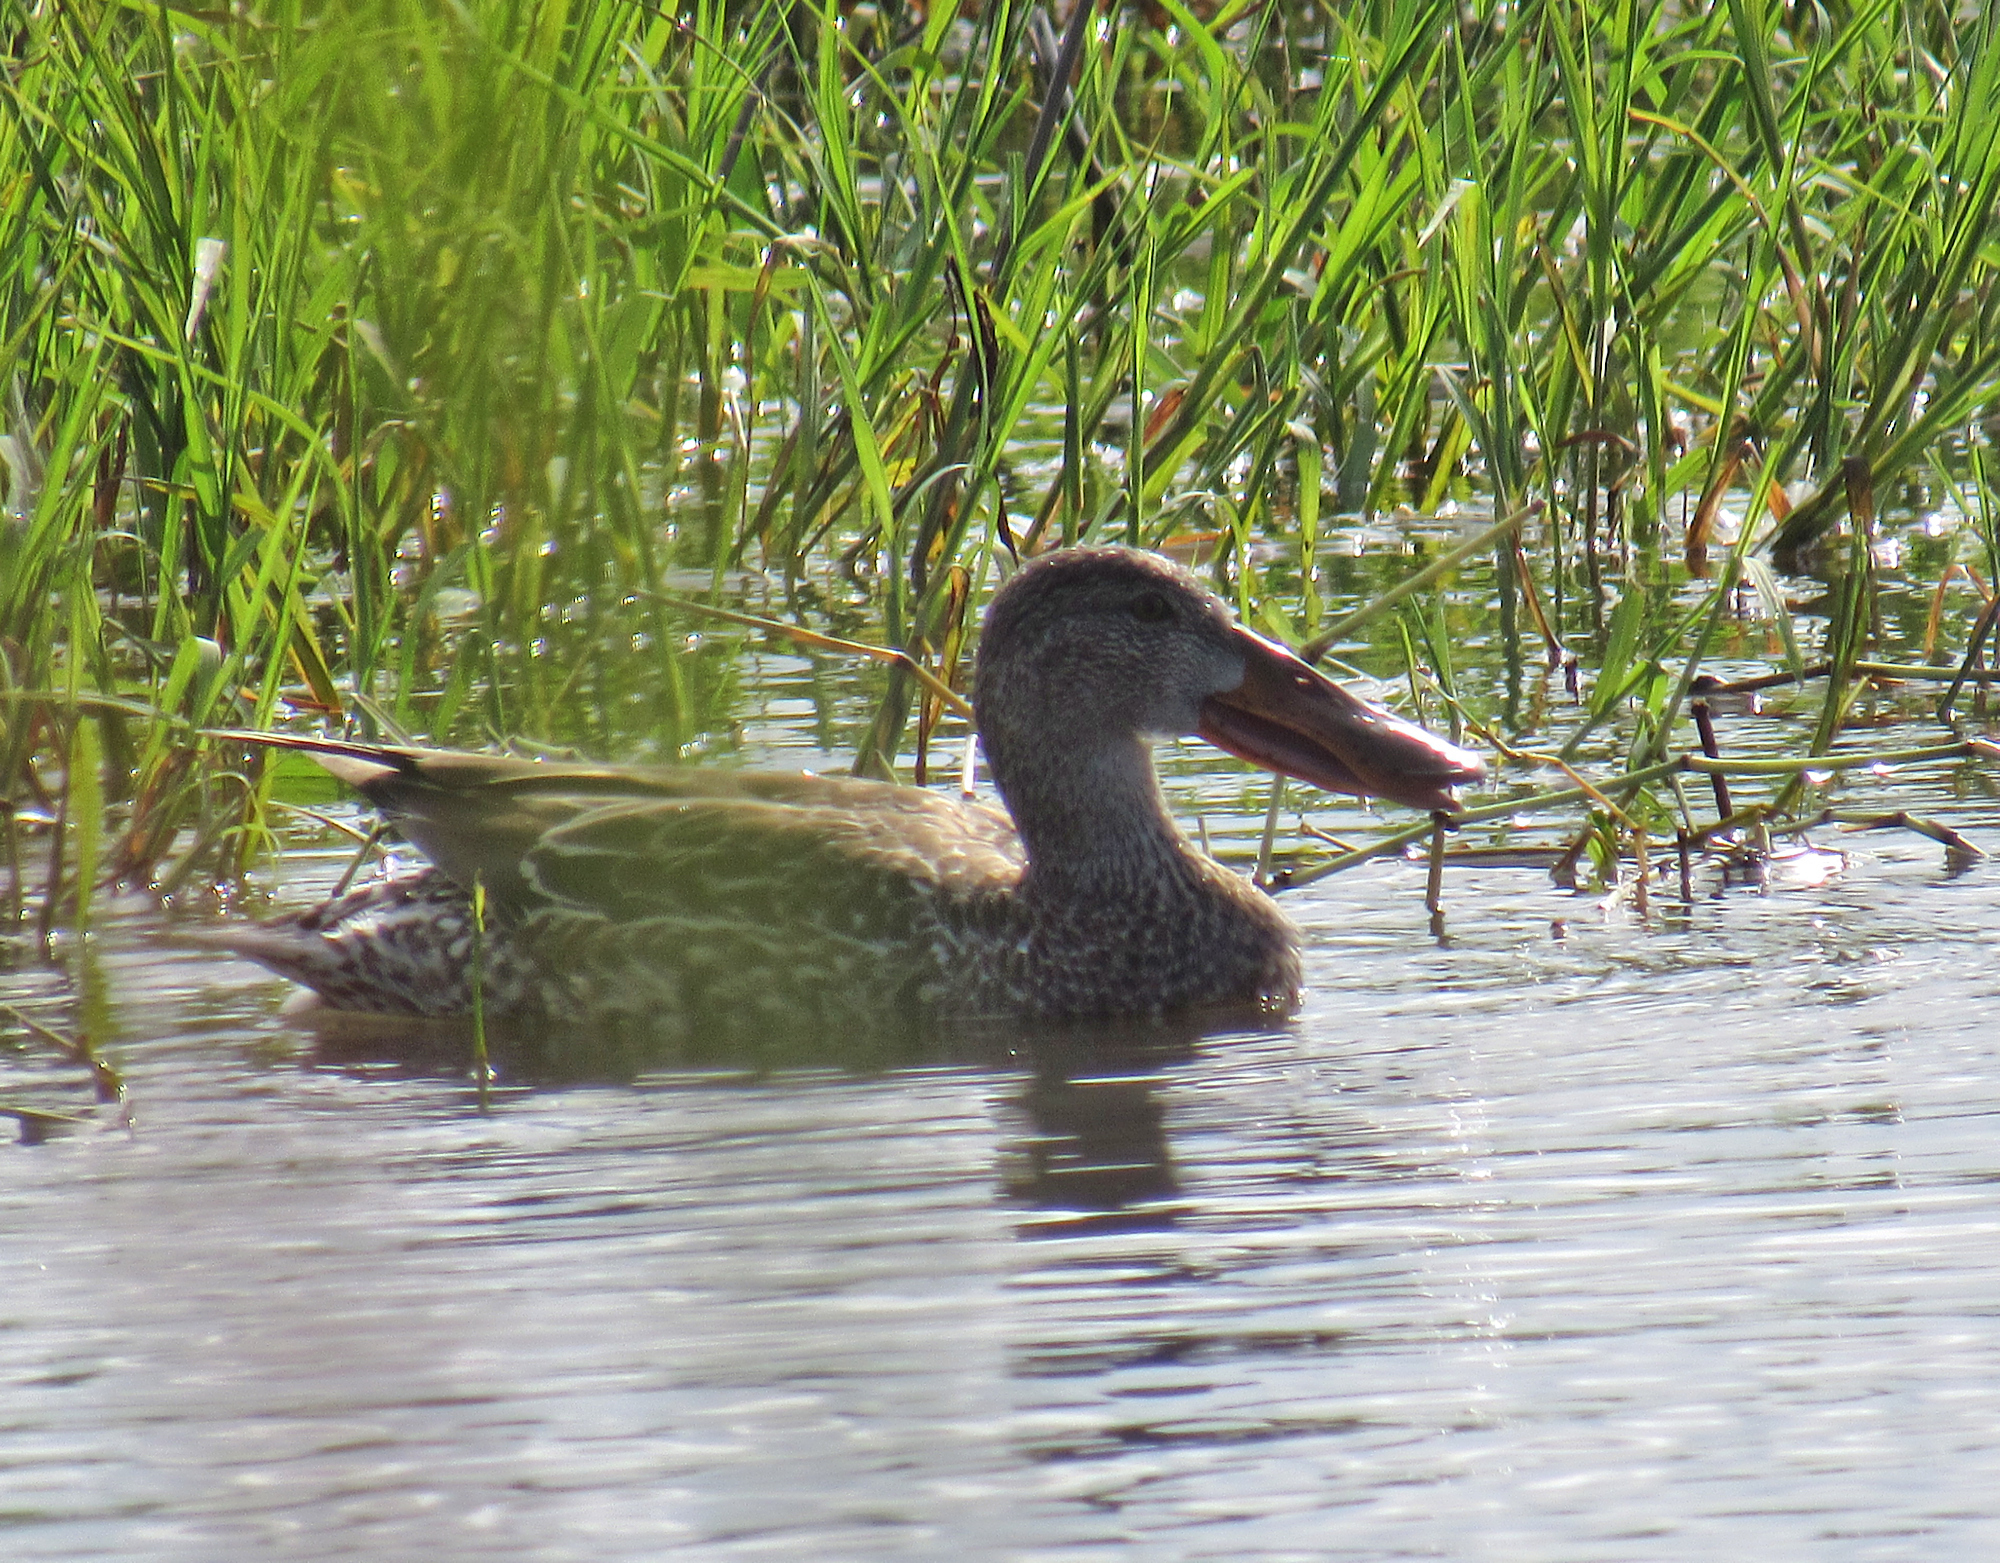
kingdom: Animalia
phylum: Chordata
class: Aves
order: Anseriformes
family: Anatidae
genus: Spatula
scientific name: Spatula clypeata
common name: Northern shoveler
